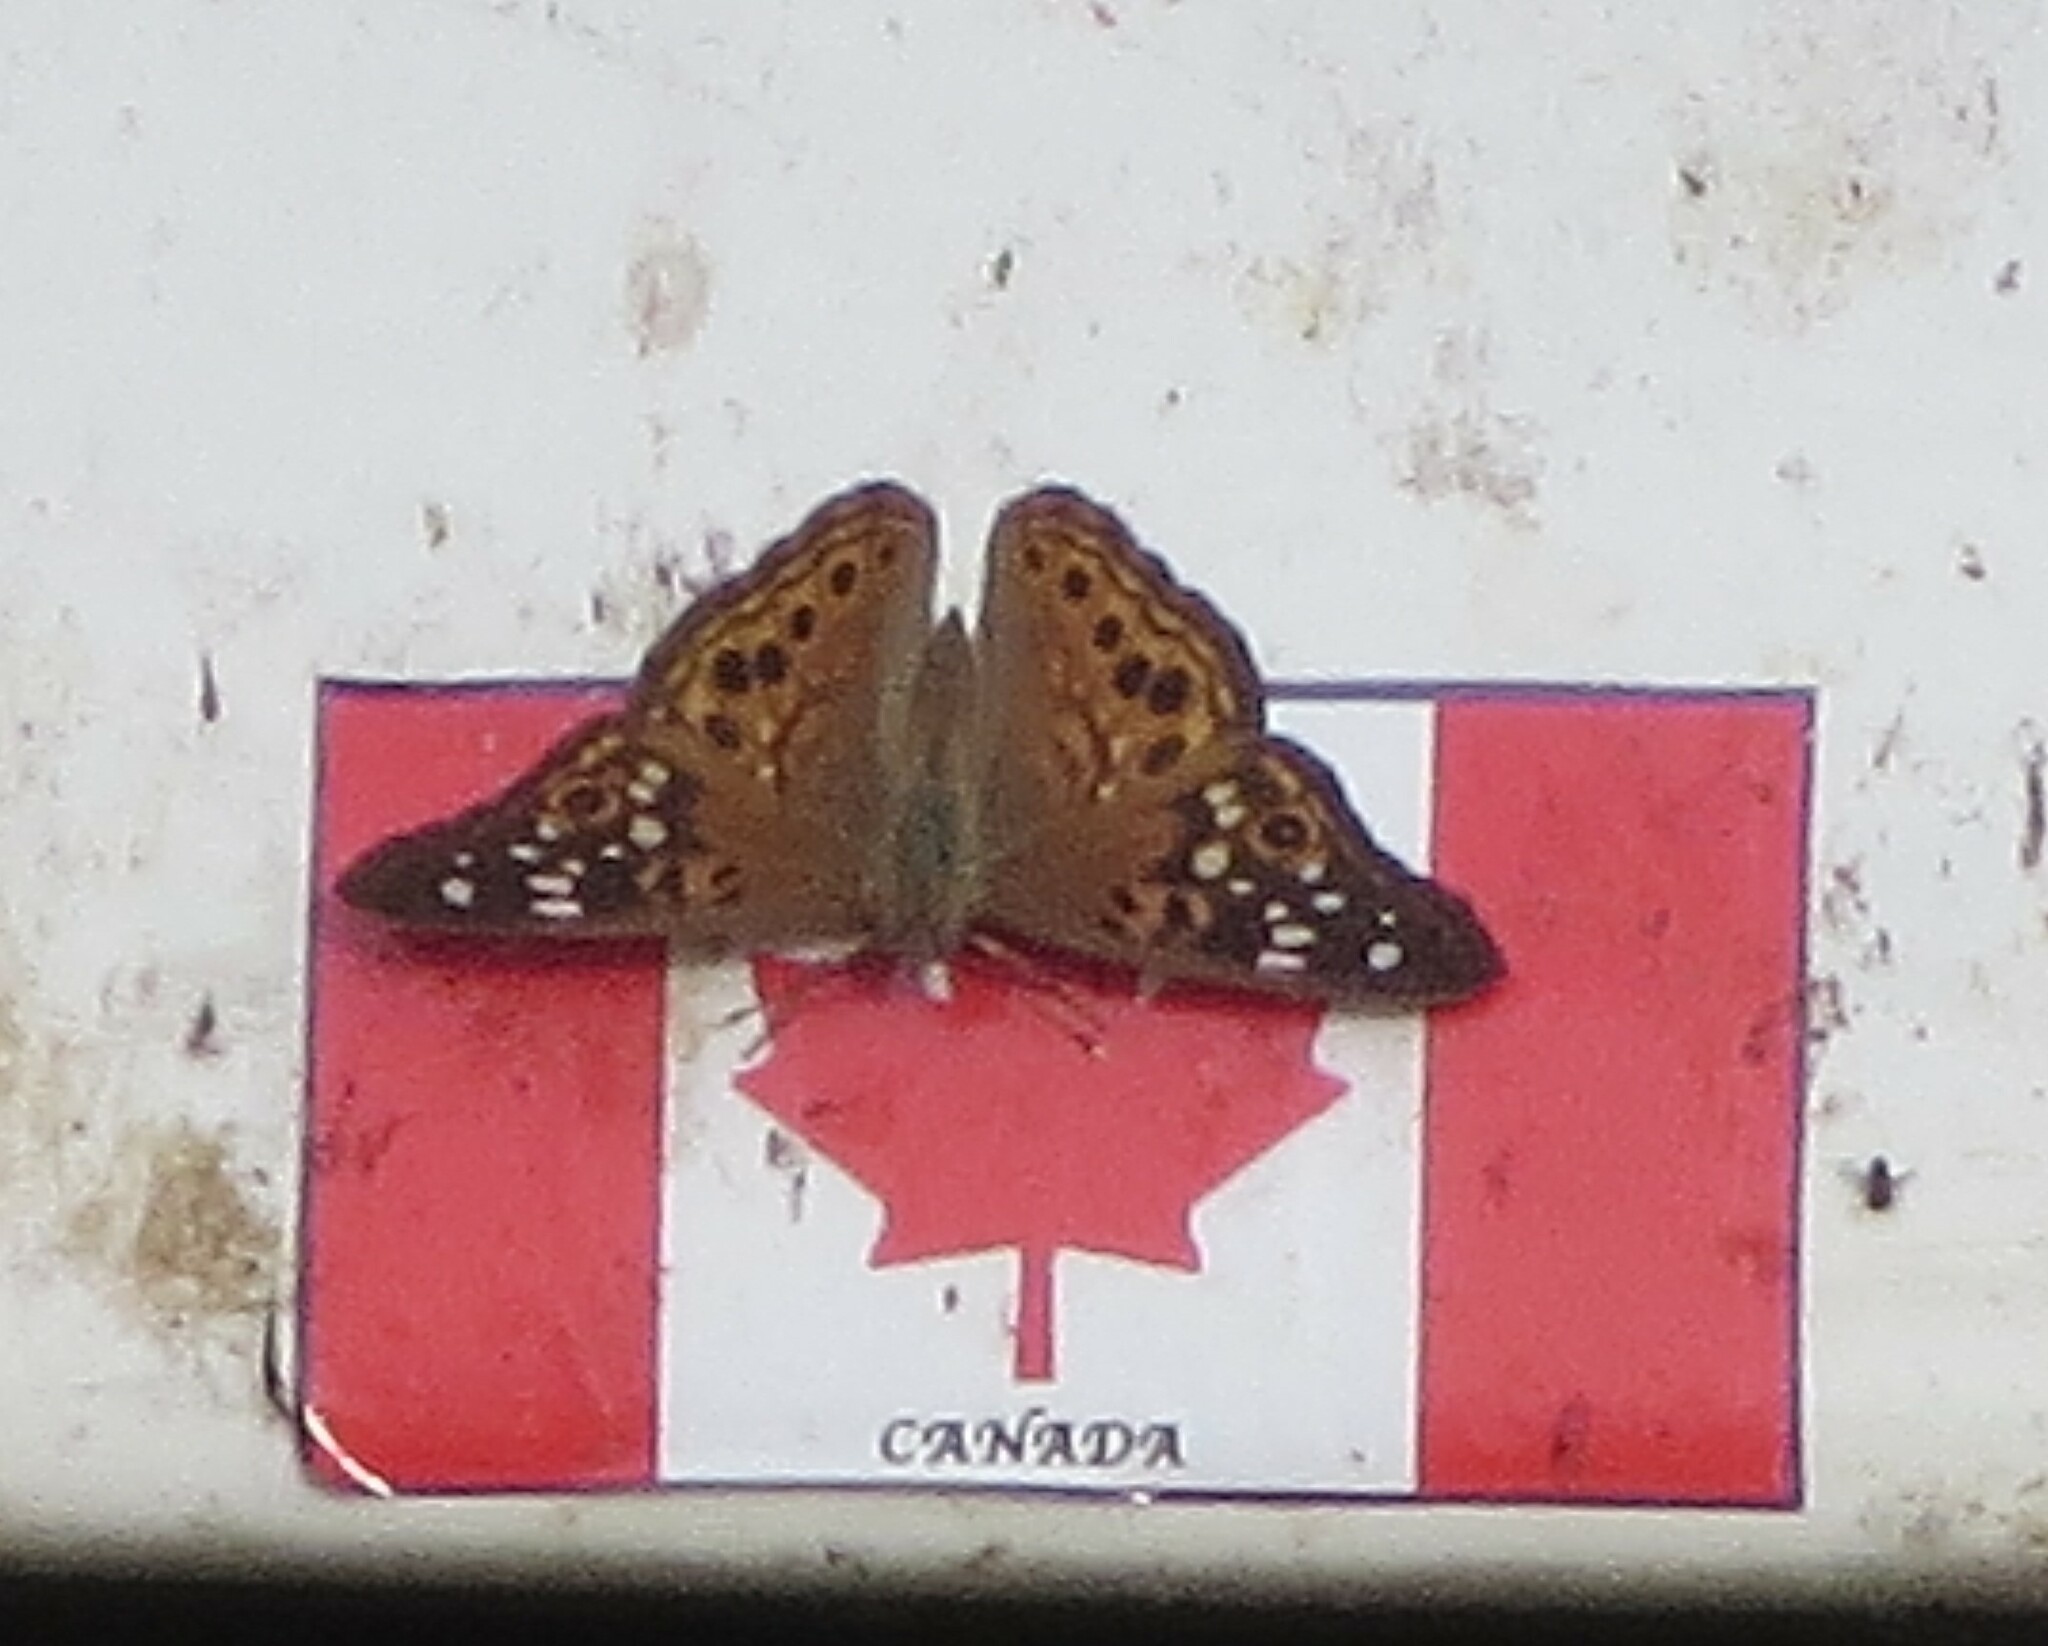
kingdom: Animalia
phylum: Arthropoda
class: Insecta
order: Lepidoptera
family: Nymphalidae
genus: Asterocampa
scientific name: Asterocampa celtis
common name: Hackberry emperor
